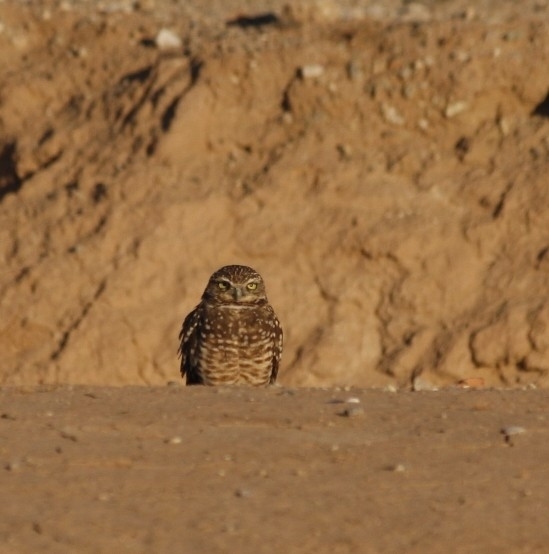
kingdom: Animalia
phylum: Chordata
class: Aves
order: Strigiformes
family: Strigidae
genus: Athene
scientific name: Athene cunicularia
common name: Burrowing owl
